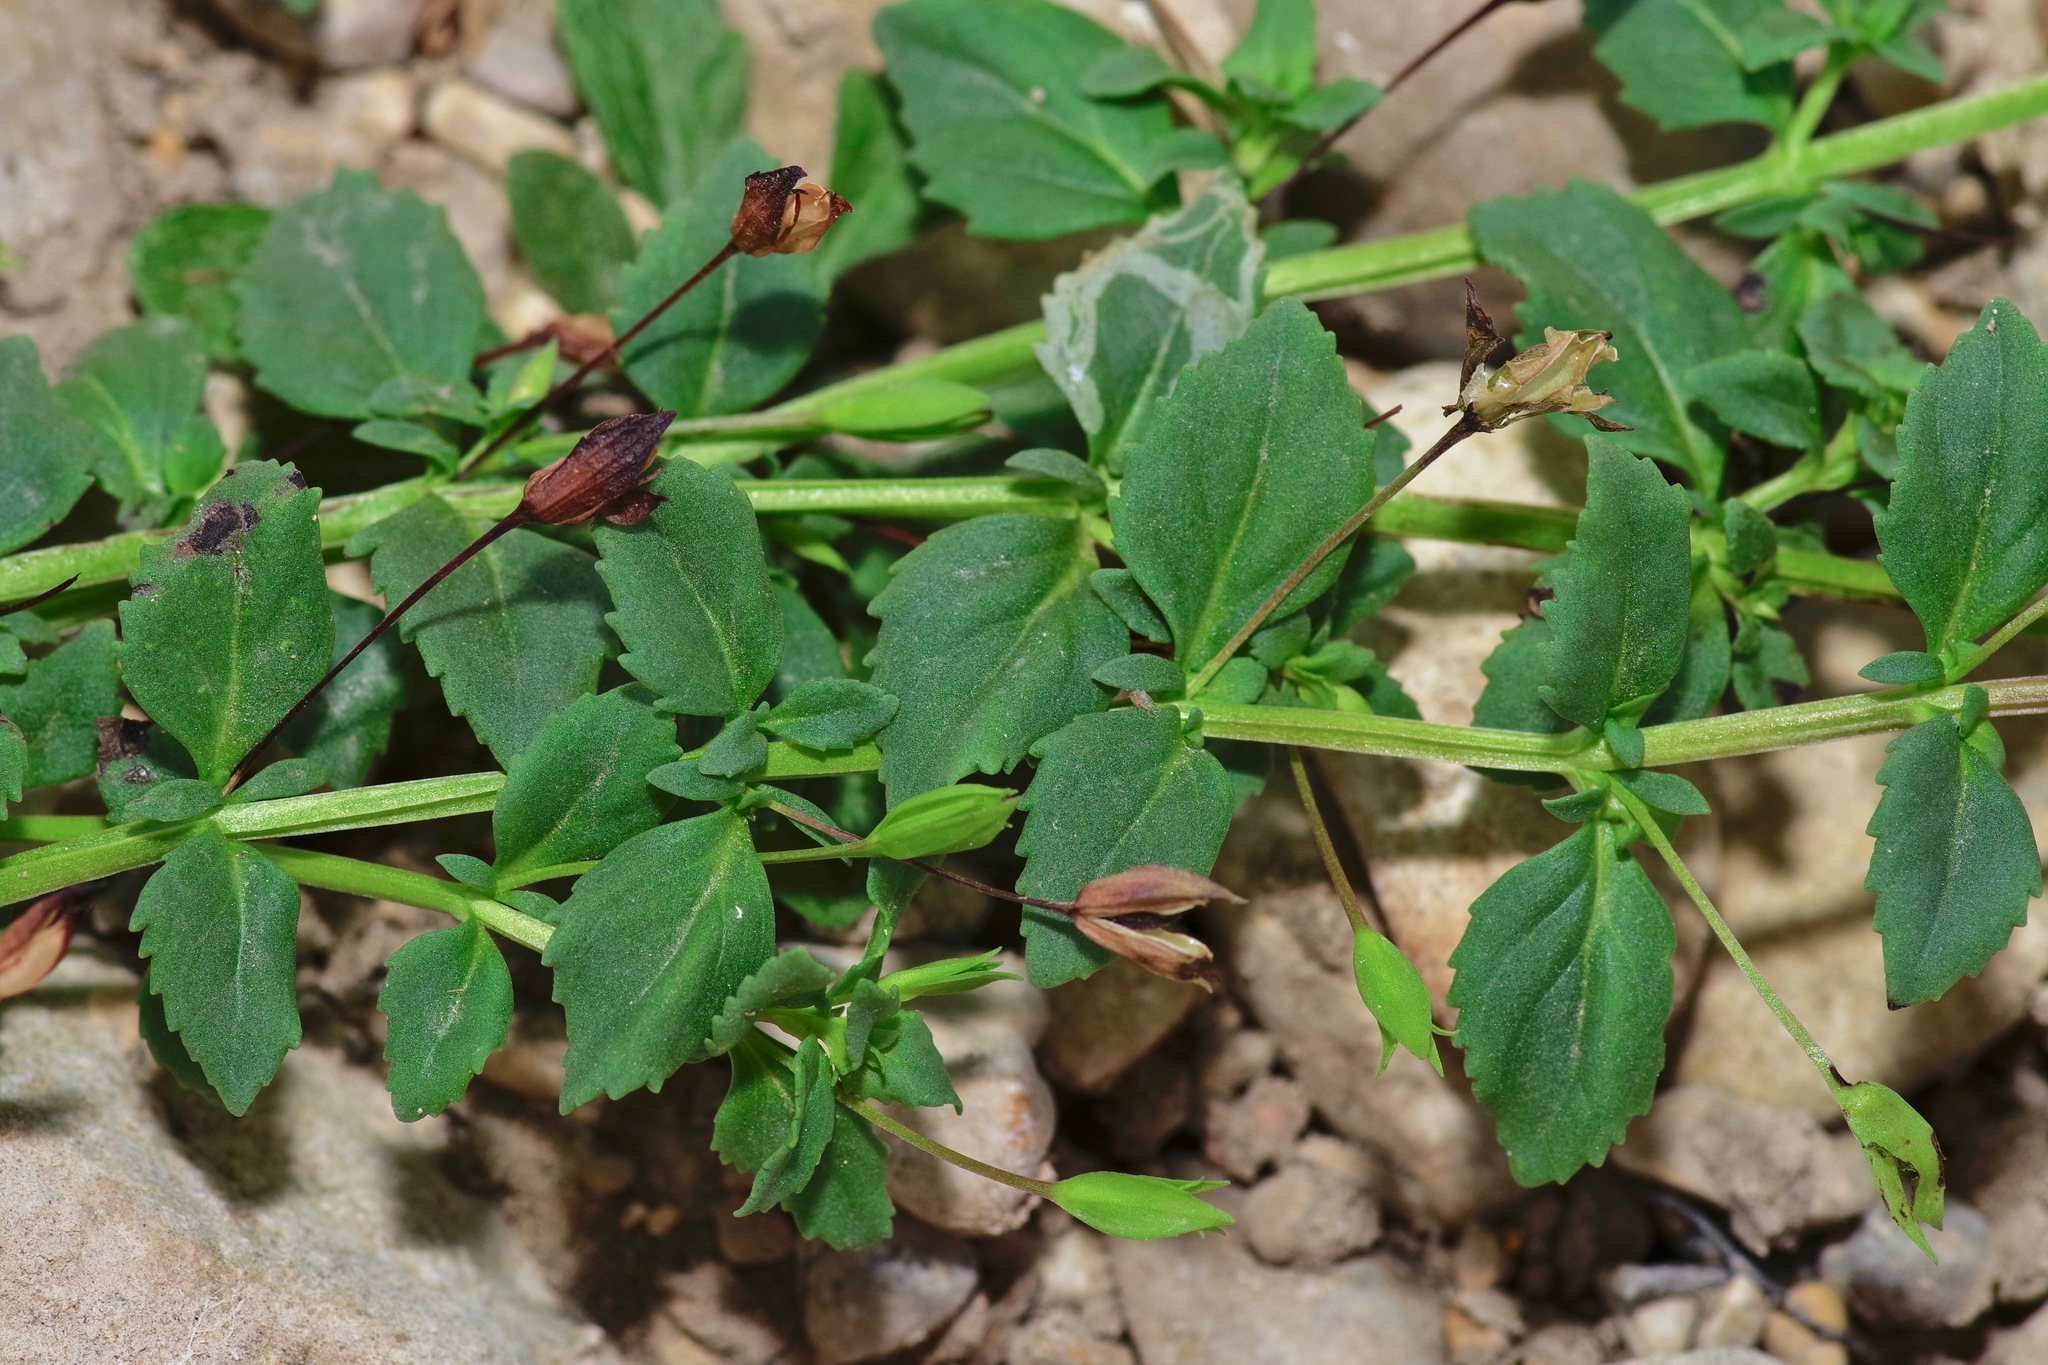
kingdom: Plantae
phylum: Tracheophyta
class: Magnoliopsida
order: Lamiales
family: Plantaginaceae
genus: Mecardonia
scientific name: Mecardonia procumbens
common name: Baby jump-up
